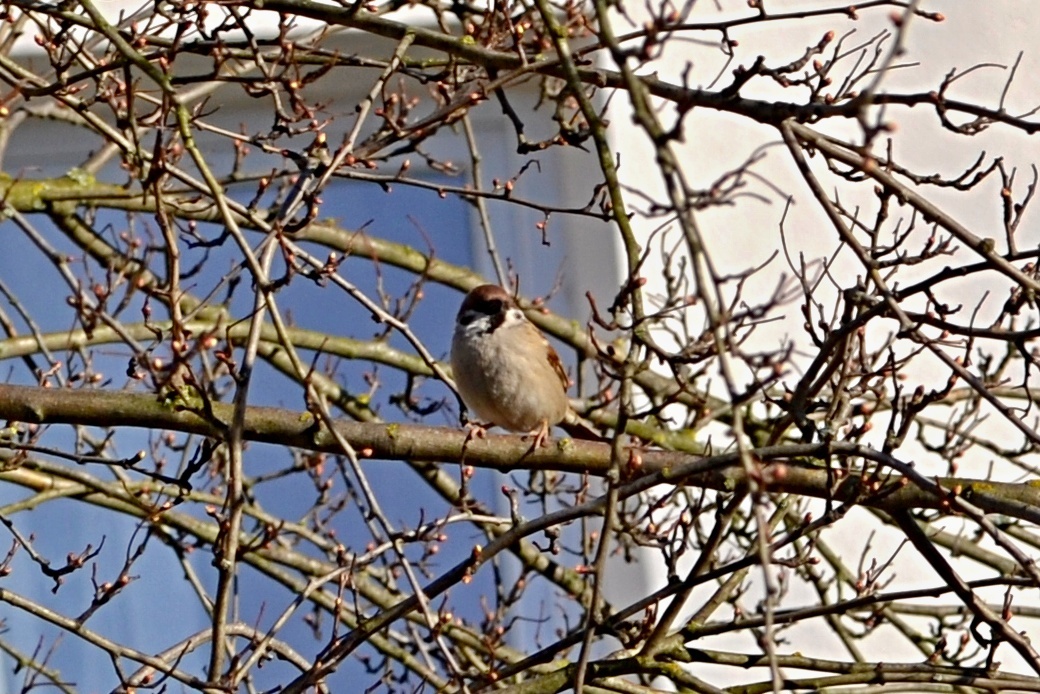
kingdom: Animalia
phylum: Chordata
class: Aves
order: Passeriformes
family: Passeridae
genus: Passer
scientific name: Passer montanus
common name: Eurasian tree sparrow
